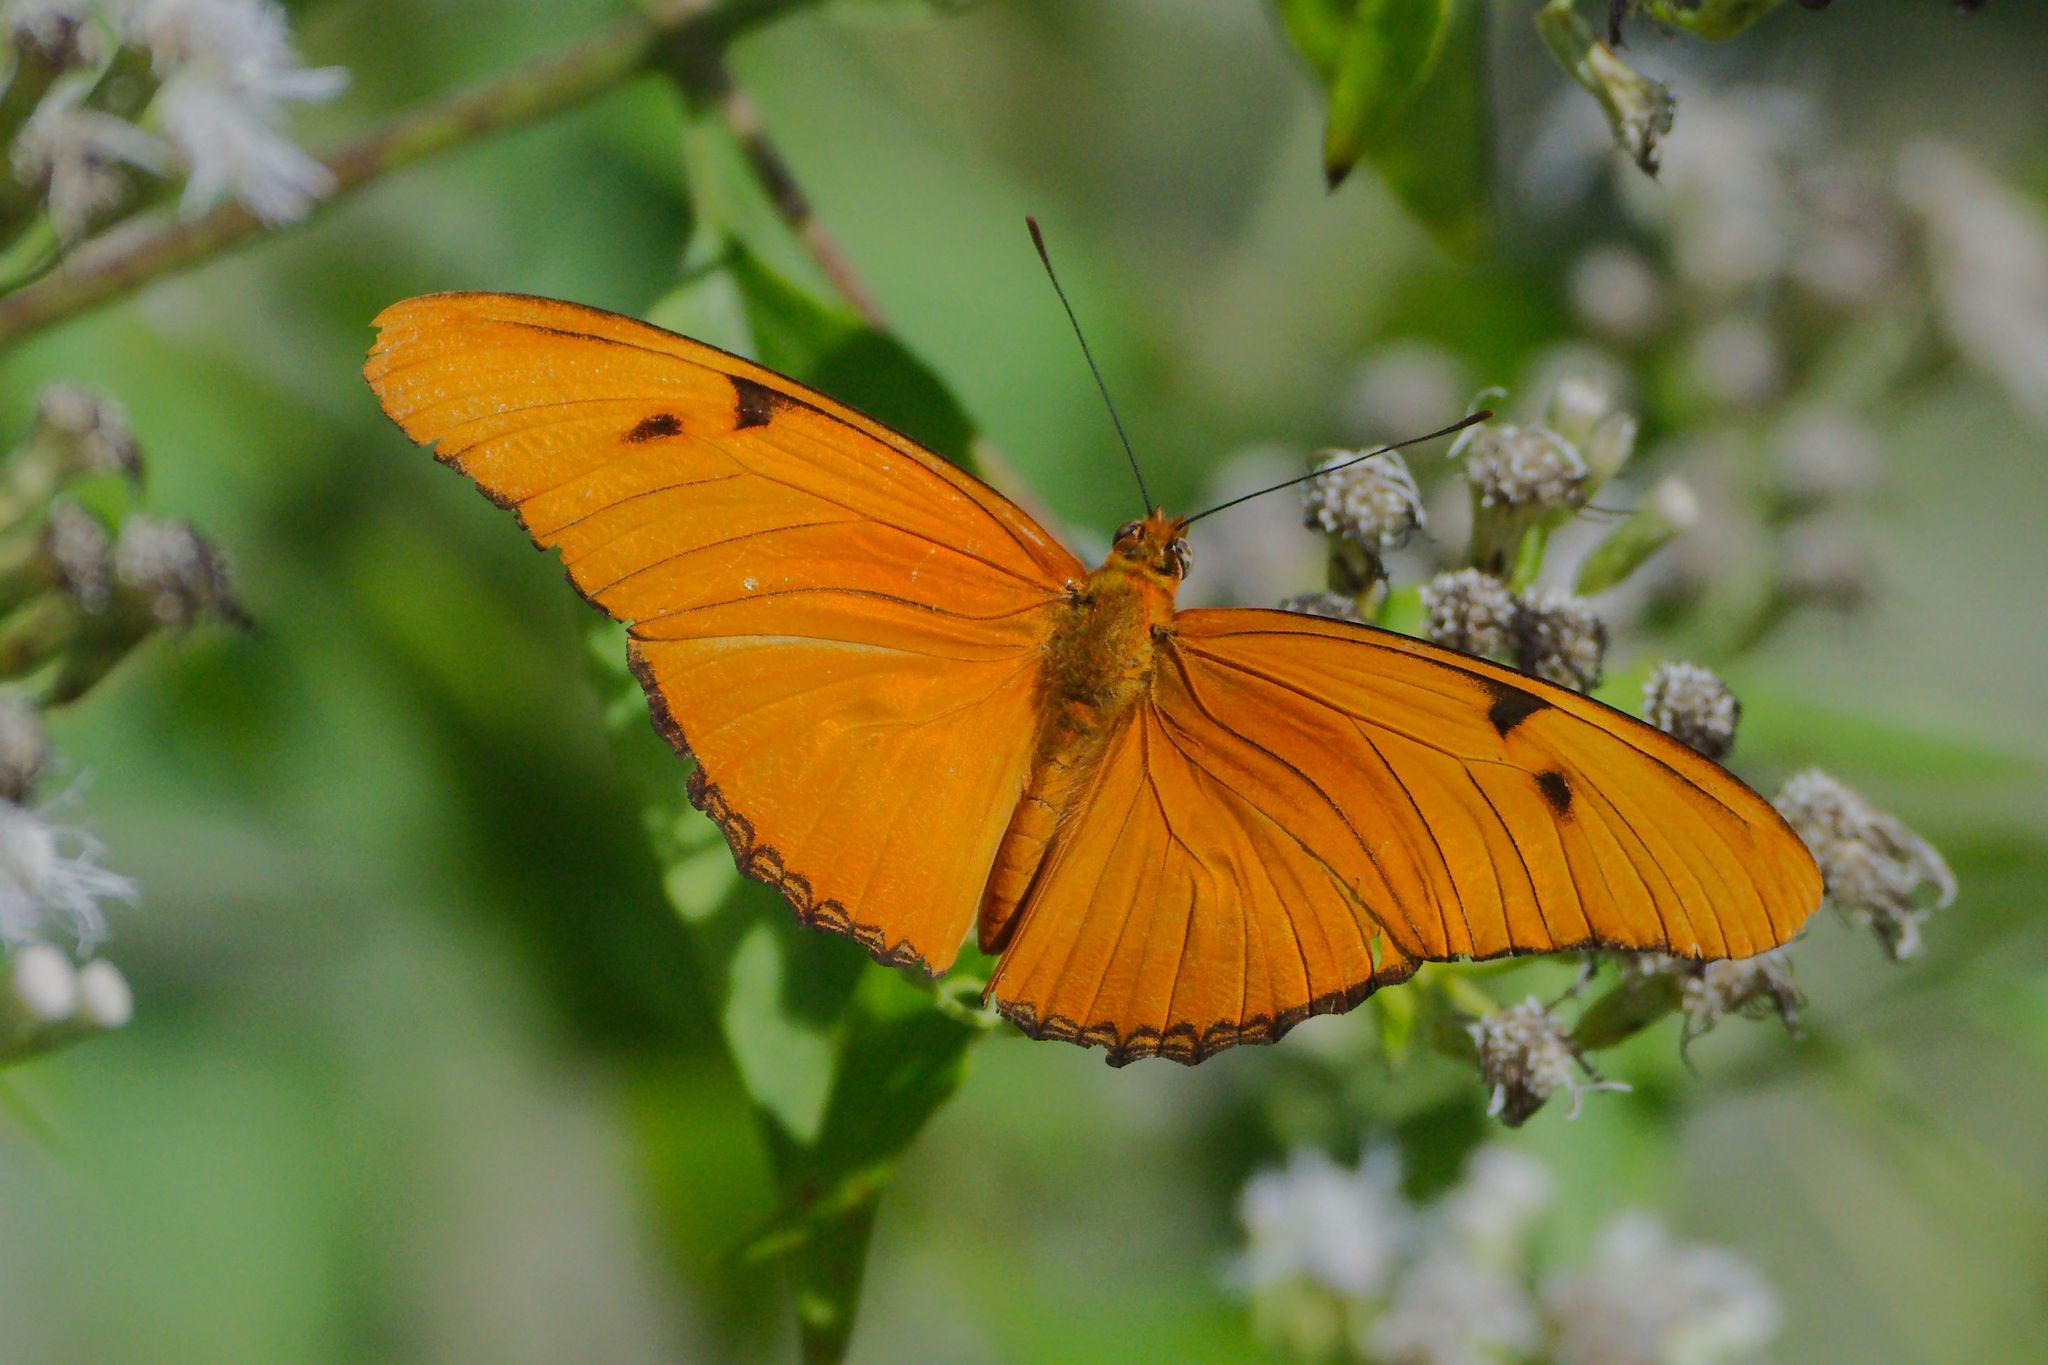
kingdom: Animalia
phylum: Arthropoda
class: Insecta
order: Lepidoptera
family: Nymphalidae
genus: Dryas
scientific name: Dryas iulia
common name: Flambeau
